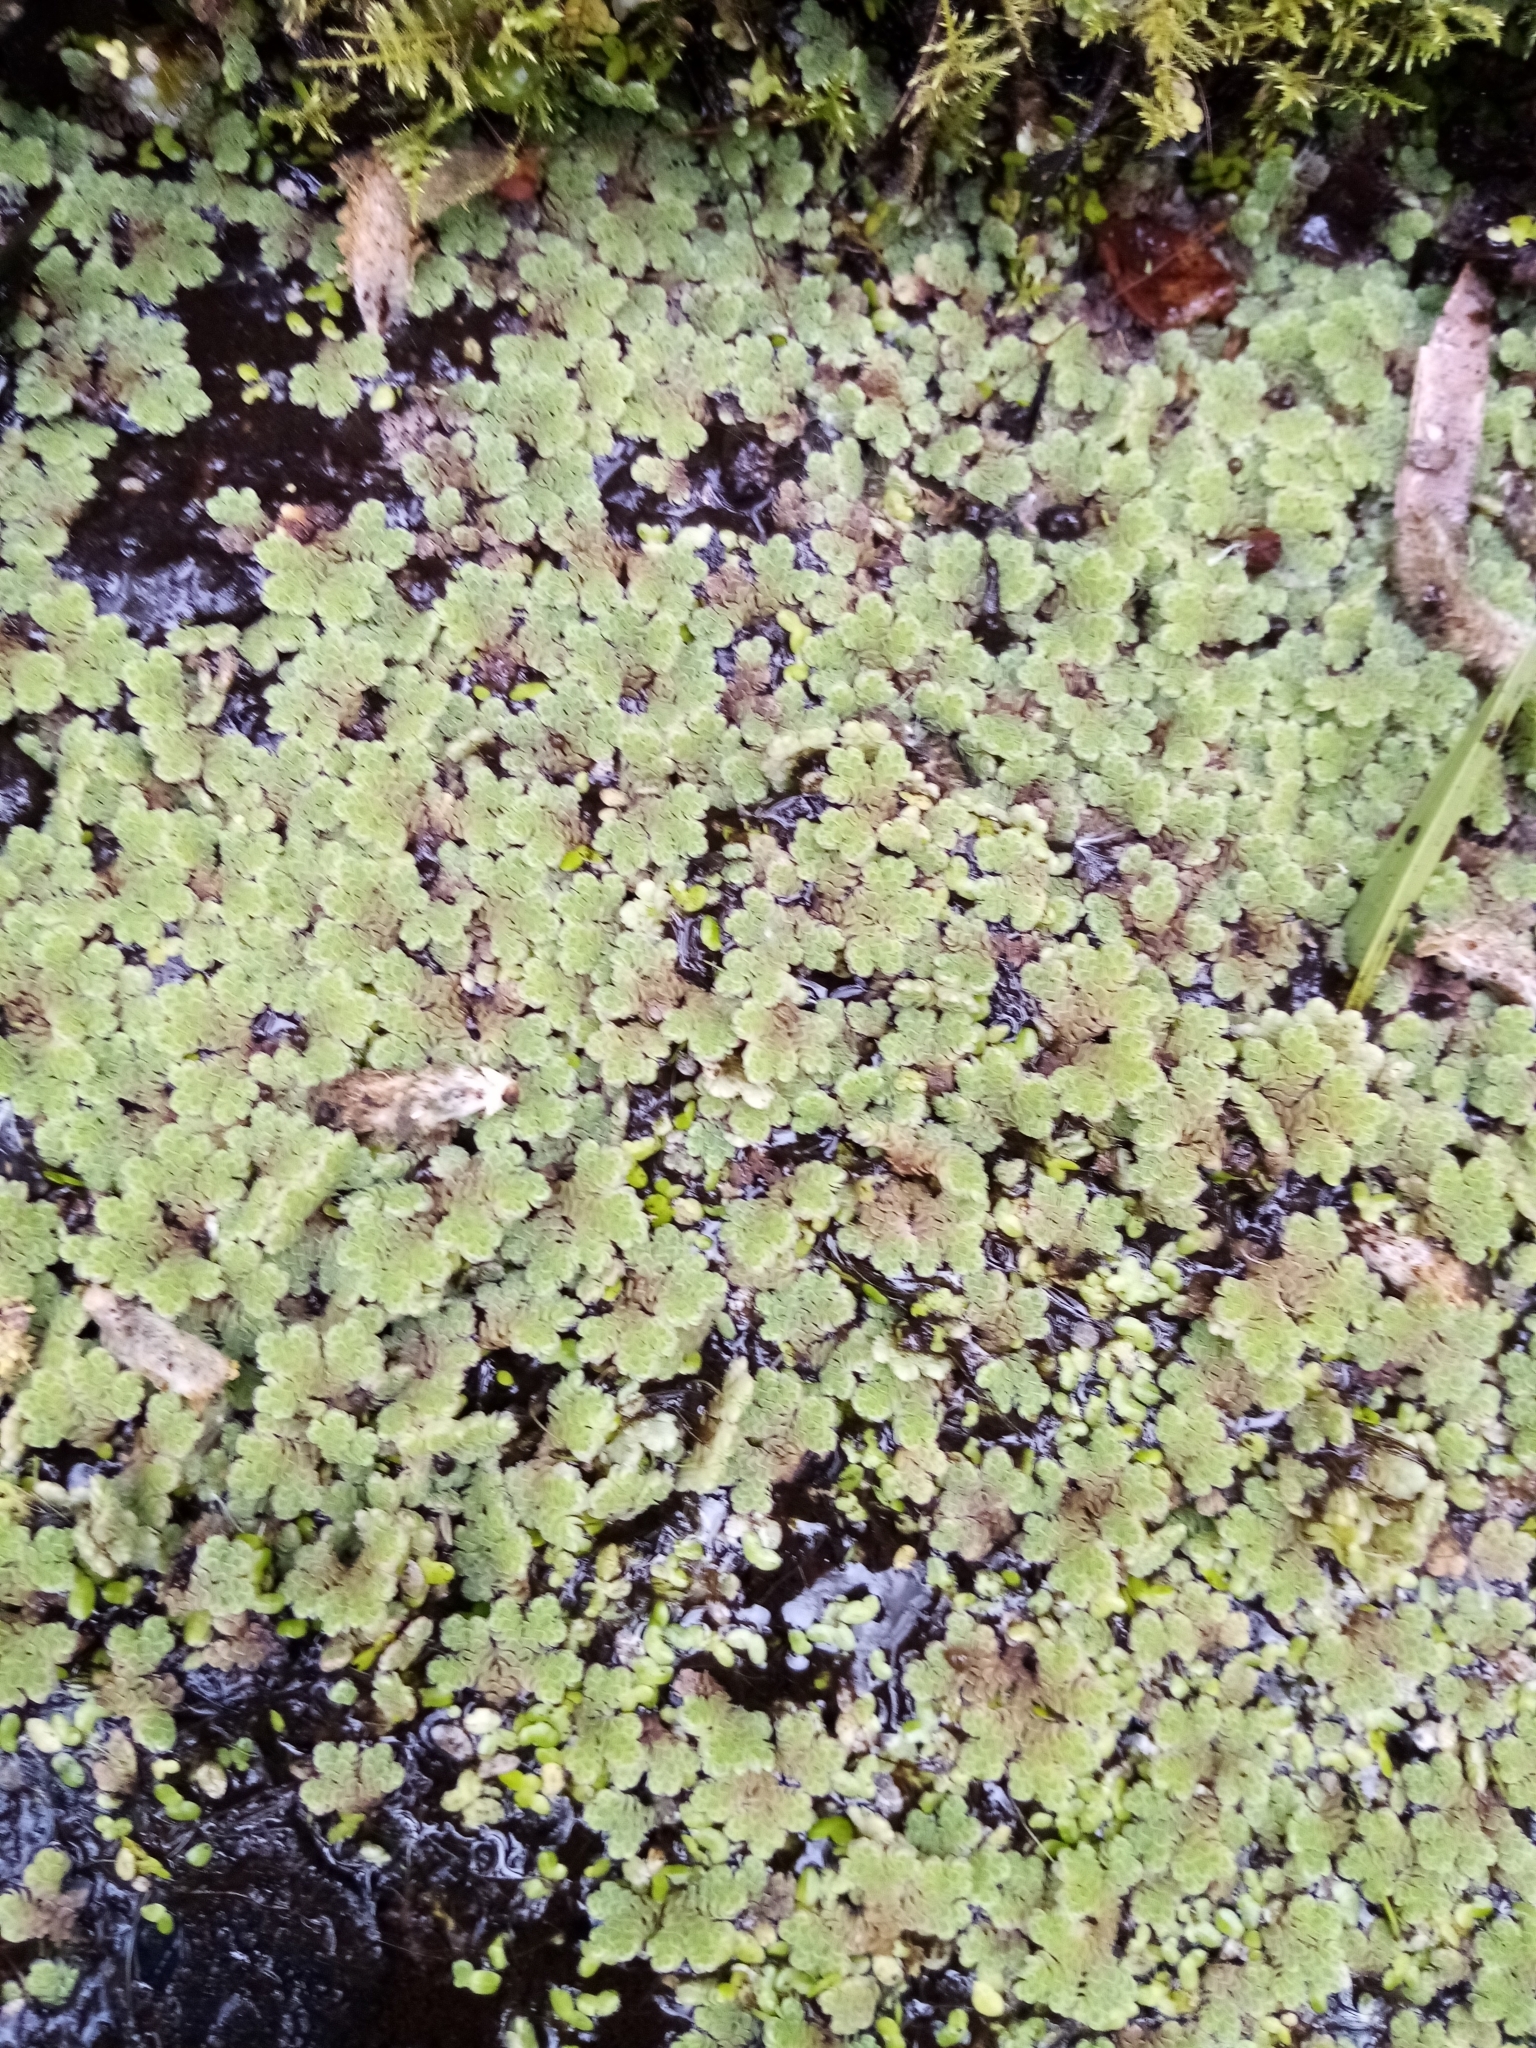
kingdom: Plantae
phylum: Tracheophyta
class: Polypodiopsida
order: Salviniales
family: Salviniaceae
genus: Azolla
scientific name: Azolla rubra
